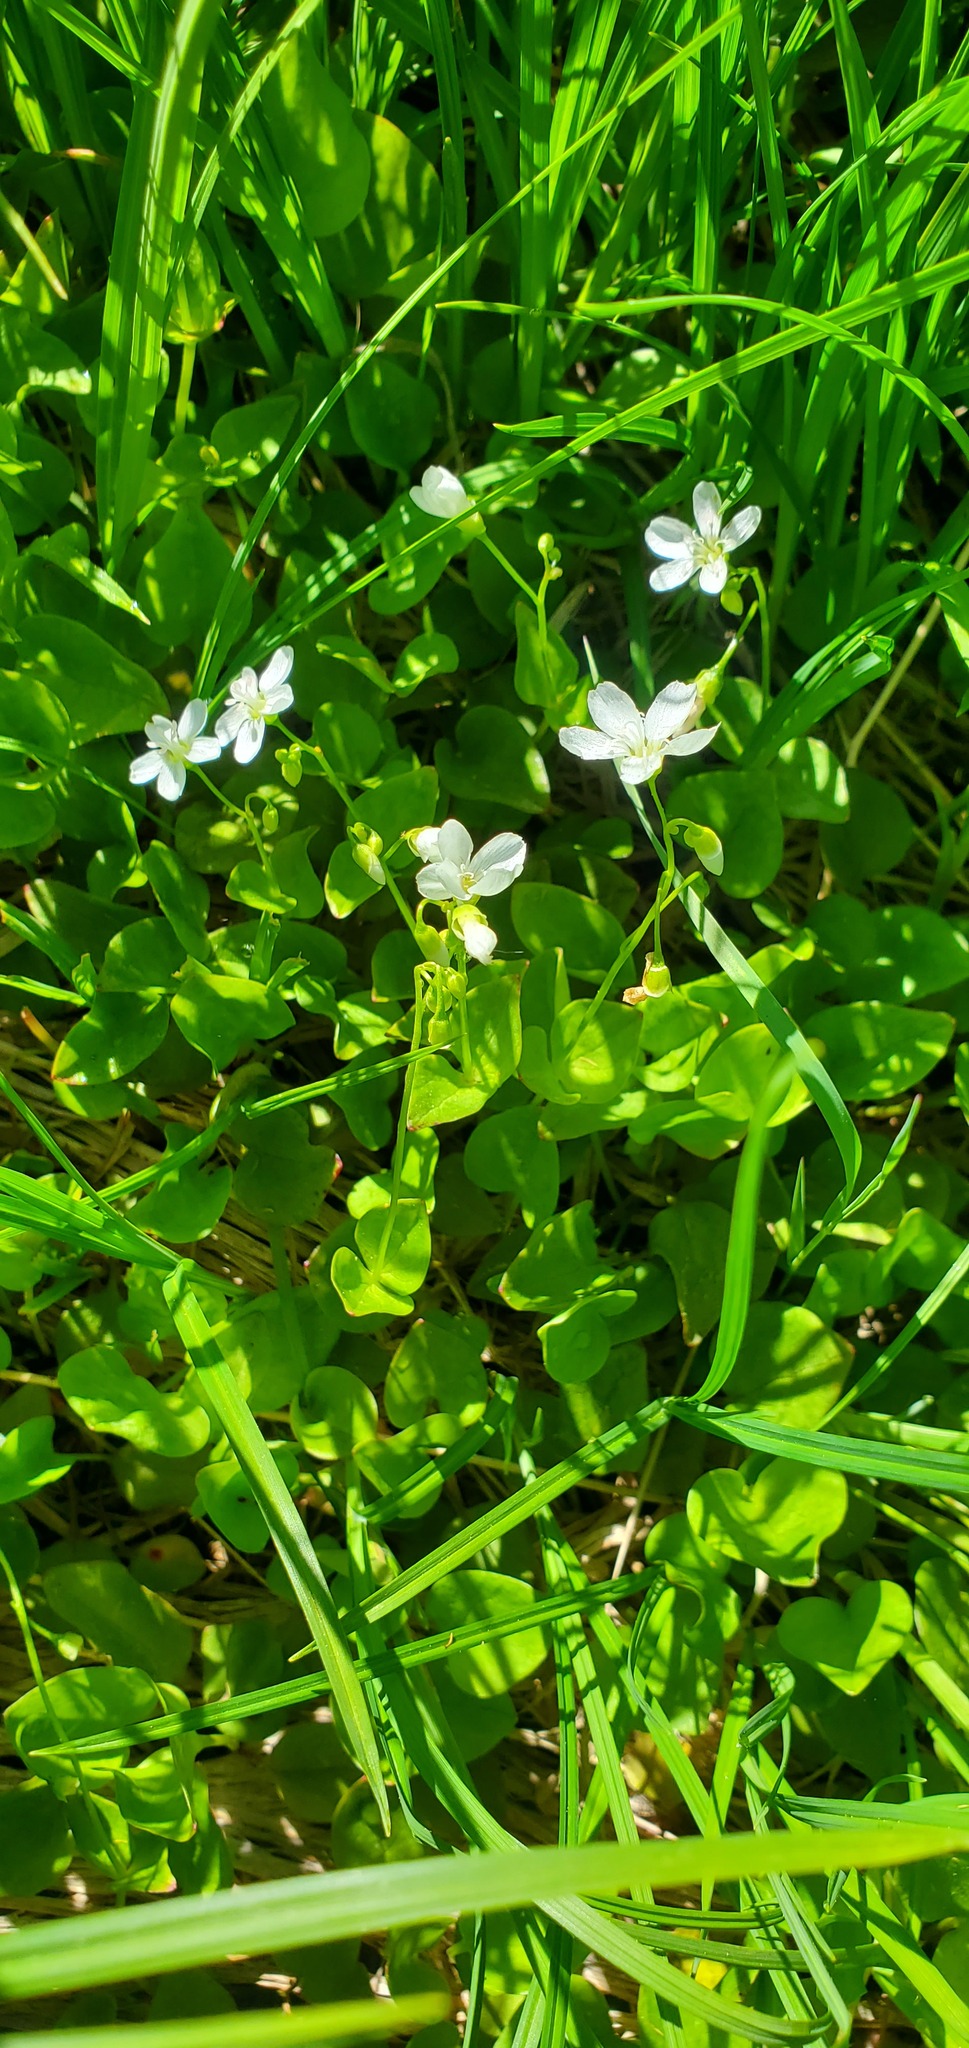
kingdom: Plantae
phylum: Tracheophyta
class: Magnoliopsida
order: Caryophyllales
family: Montiaceae
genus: Claytonia
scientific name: Claytonia cordifolia
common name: Broad-leaved spring beauty
